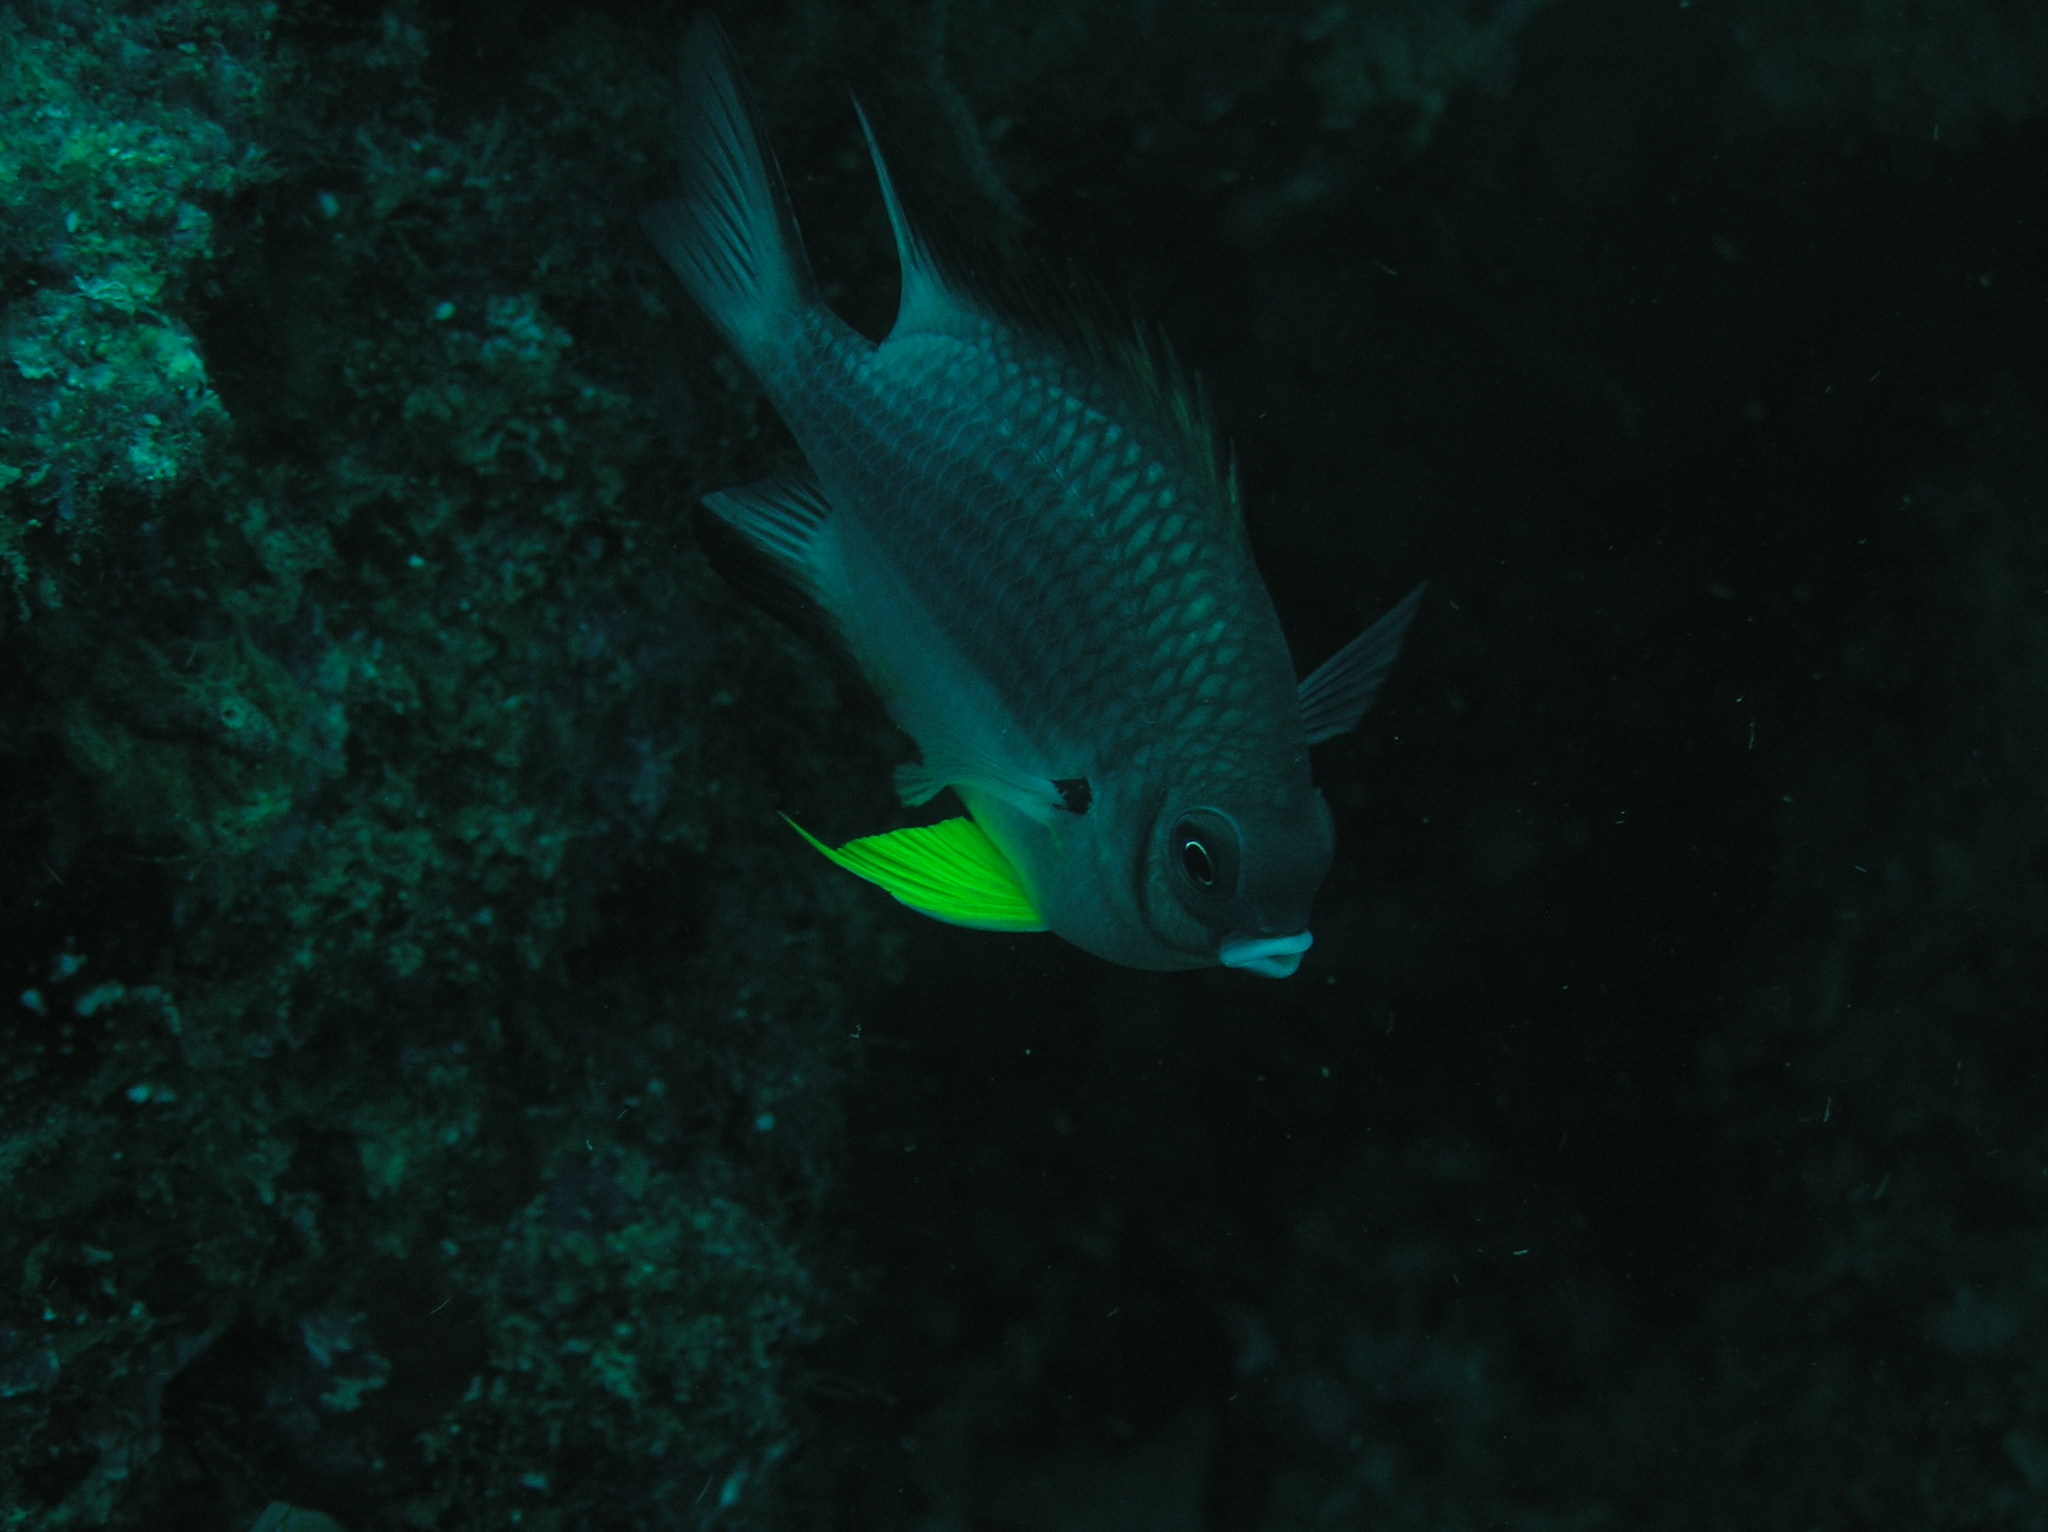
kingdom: Animalia
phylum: Chordata
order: Perciformes
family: Pomacentridae
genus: Amblyglyphidodon
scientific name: Amblyglyphidodon leucogaster
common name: White-belly damsel
